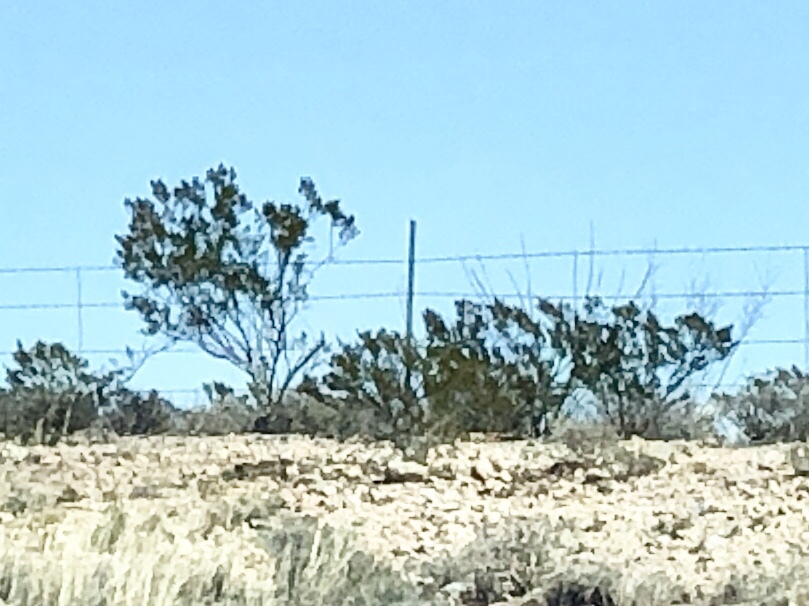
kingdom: Plantae
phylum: Tracheophyta
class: Magnoliopsida
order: Zygophyllales
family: Zygophyllaceae
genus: Larrea
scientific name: Larrea tridentata
